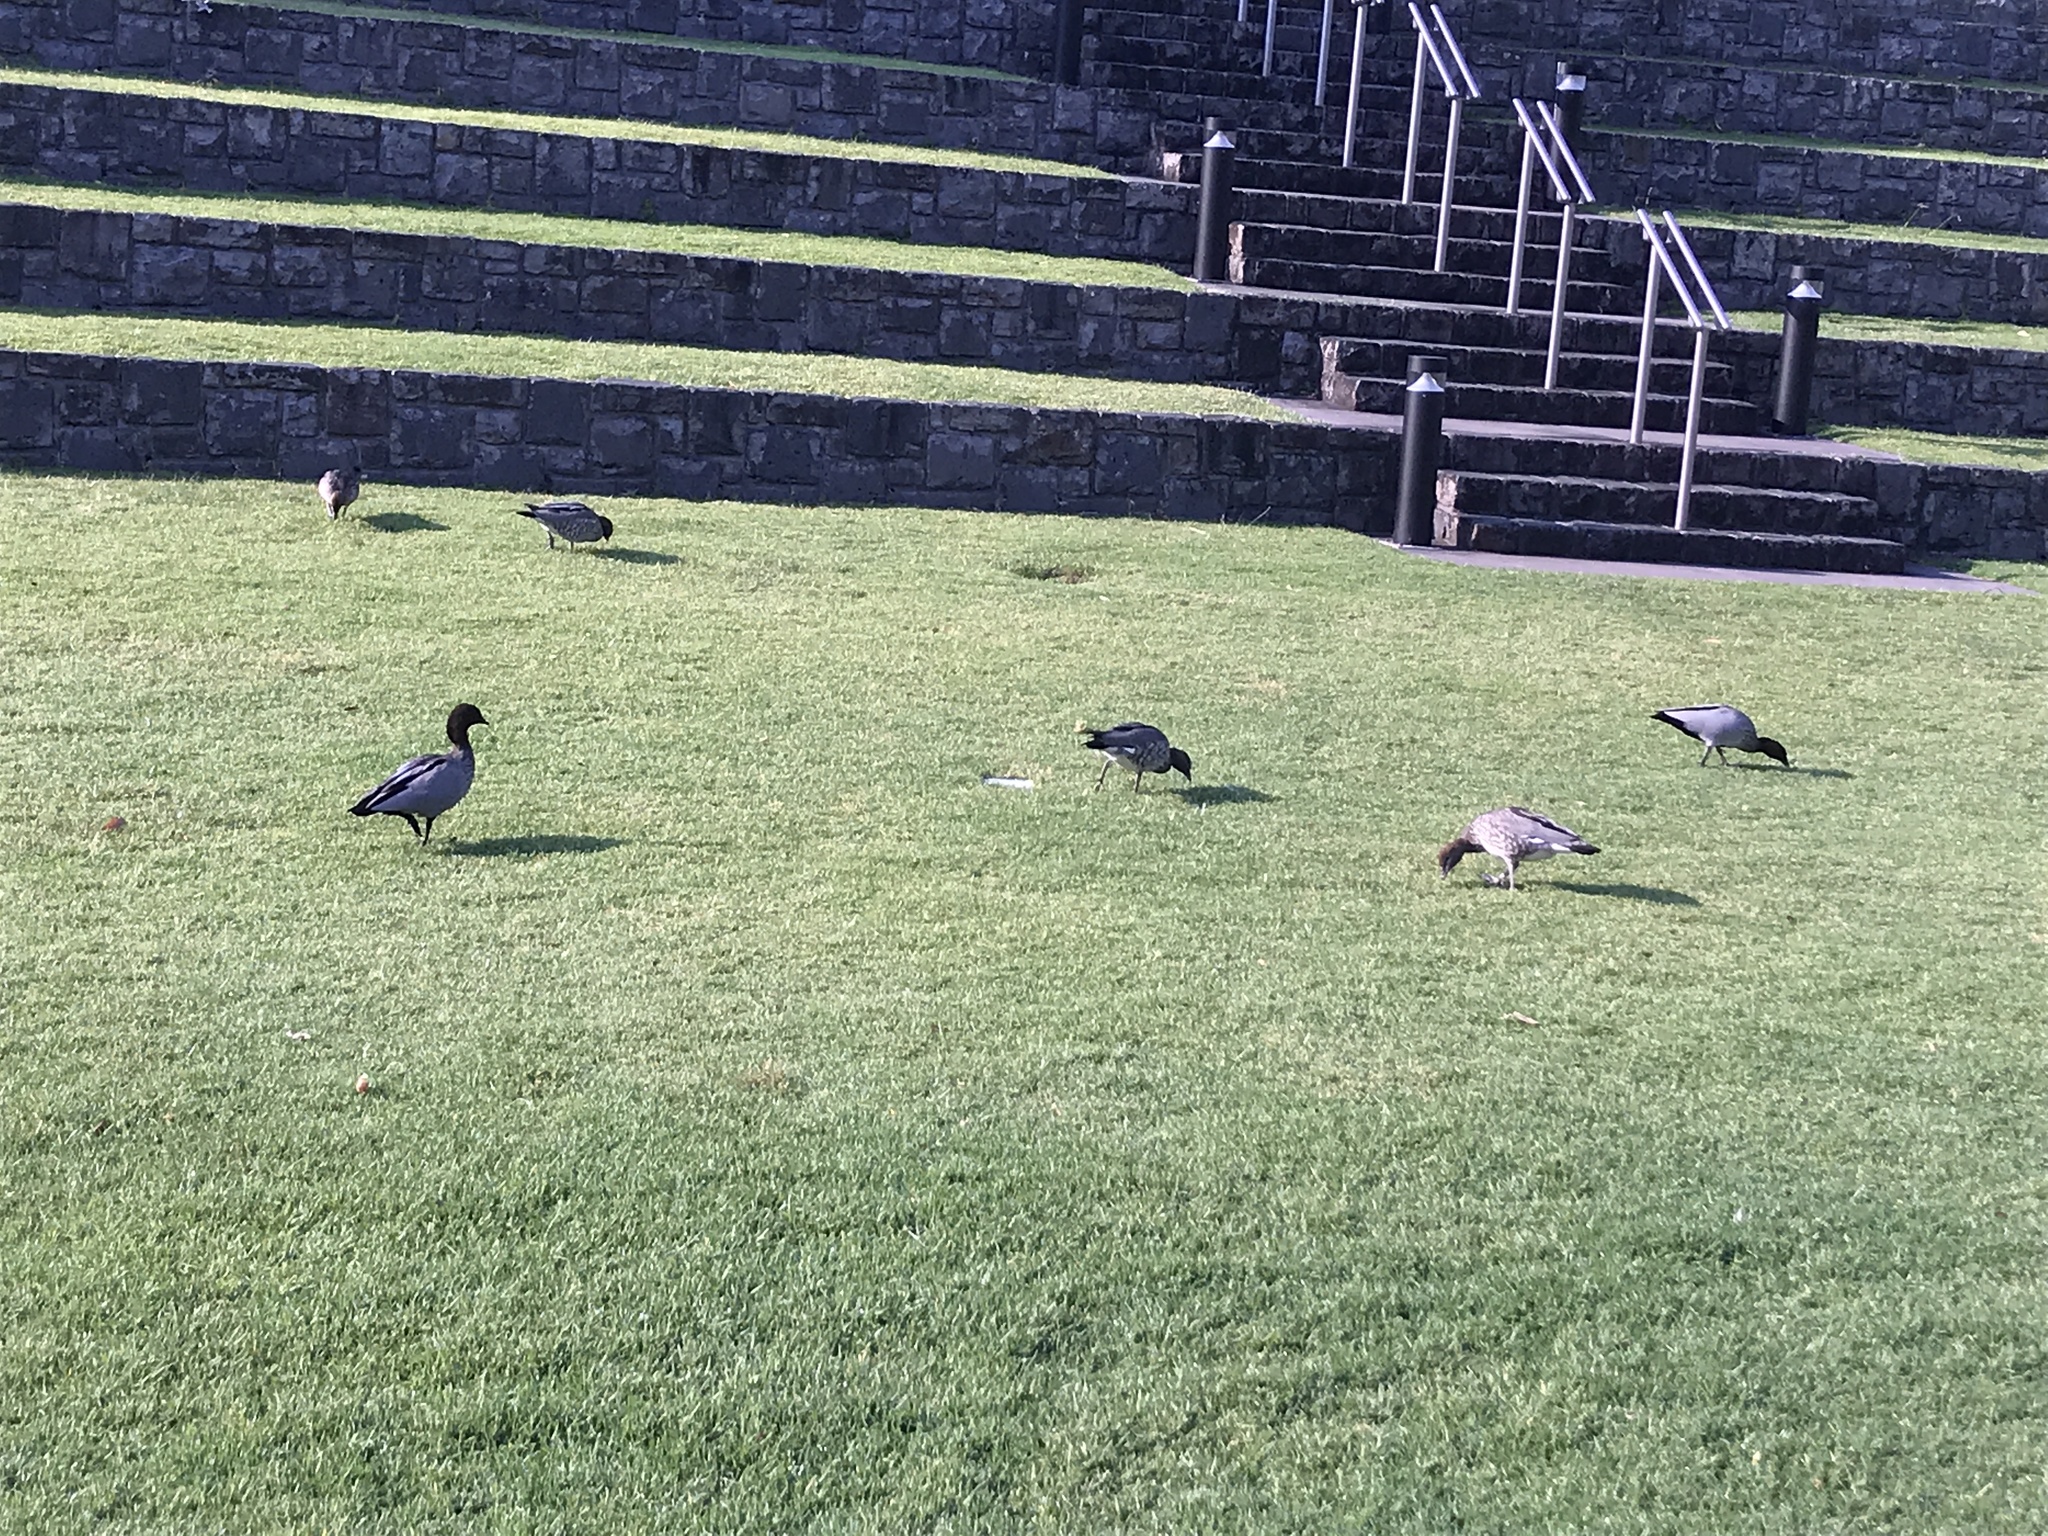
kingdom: Animalia
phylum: Chordata
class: Aves
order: Anseriformes
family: Anatidae
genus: Chenonetta
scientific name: Chenonetta jubata
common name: Maned duck
